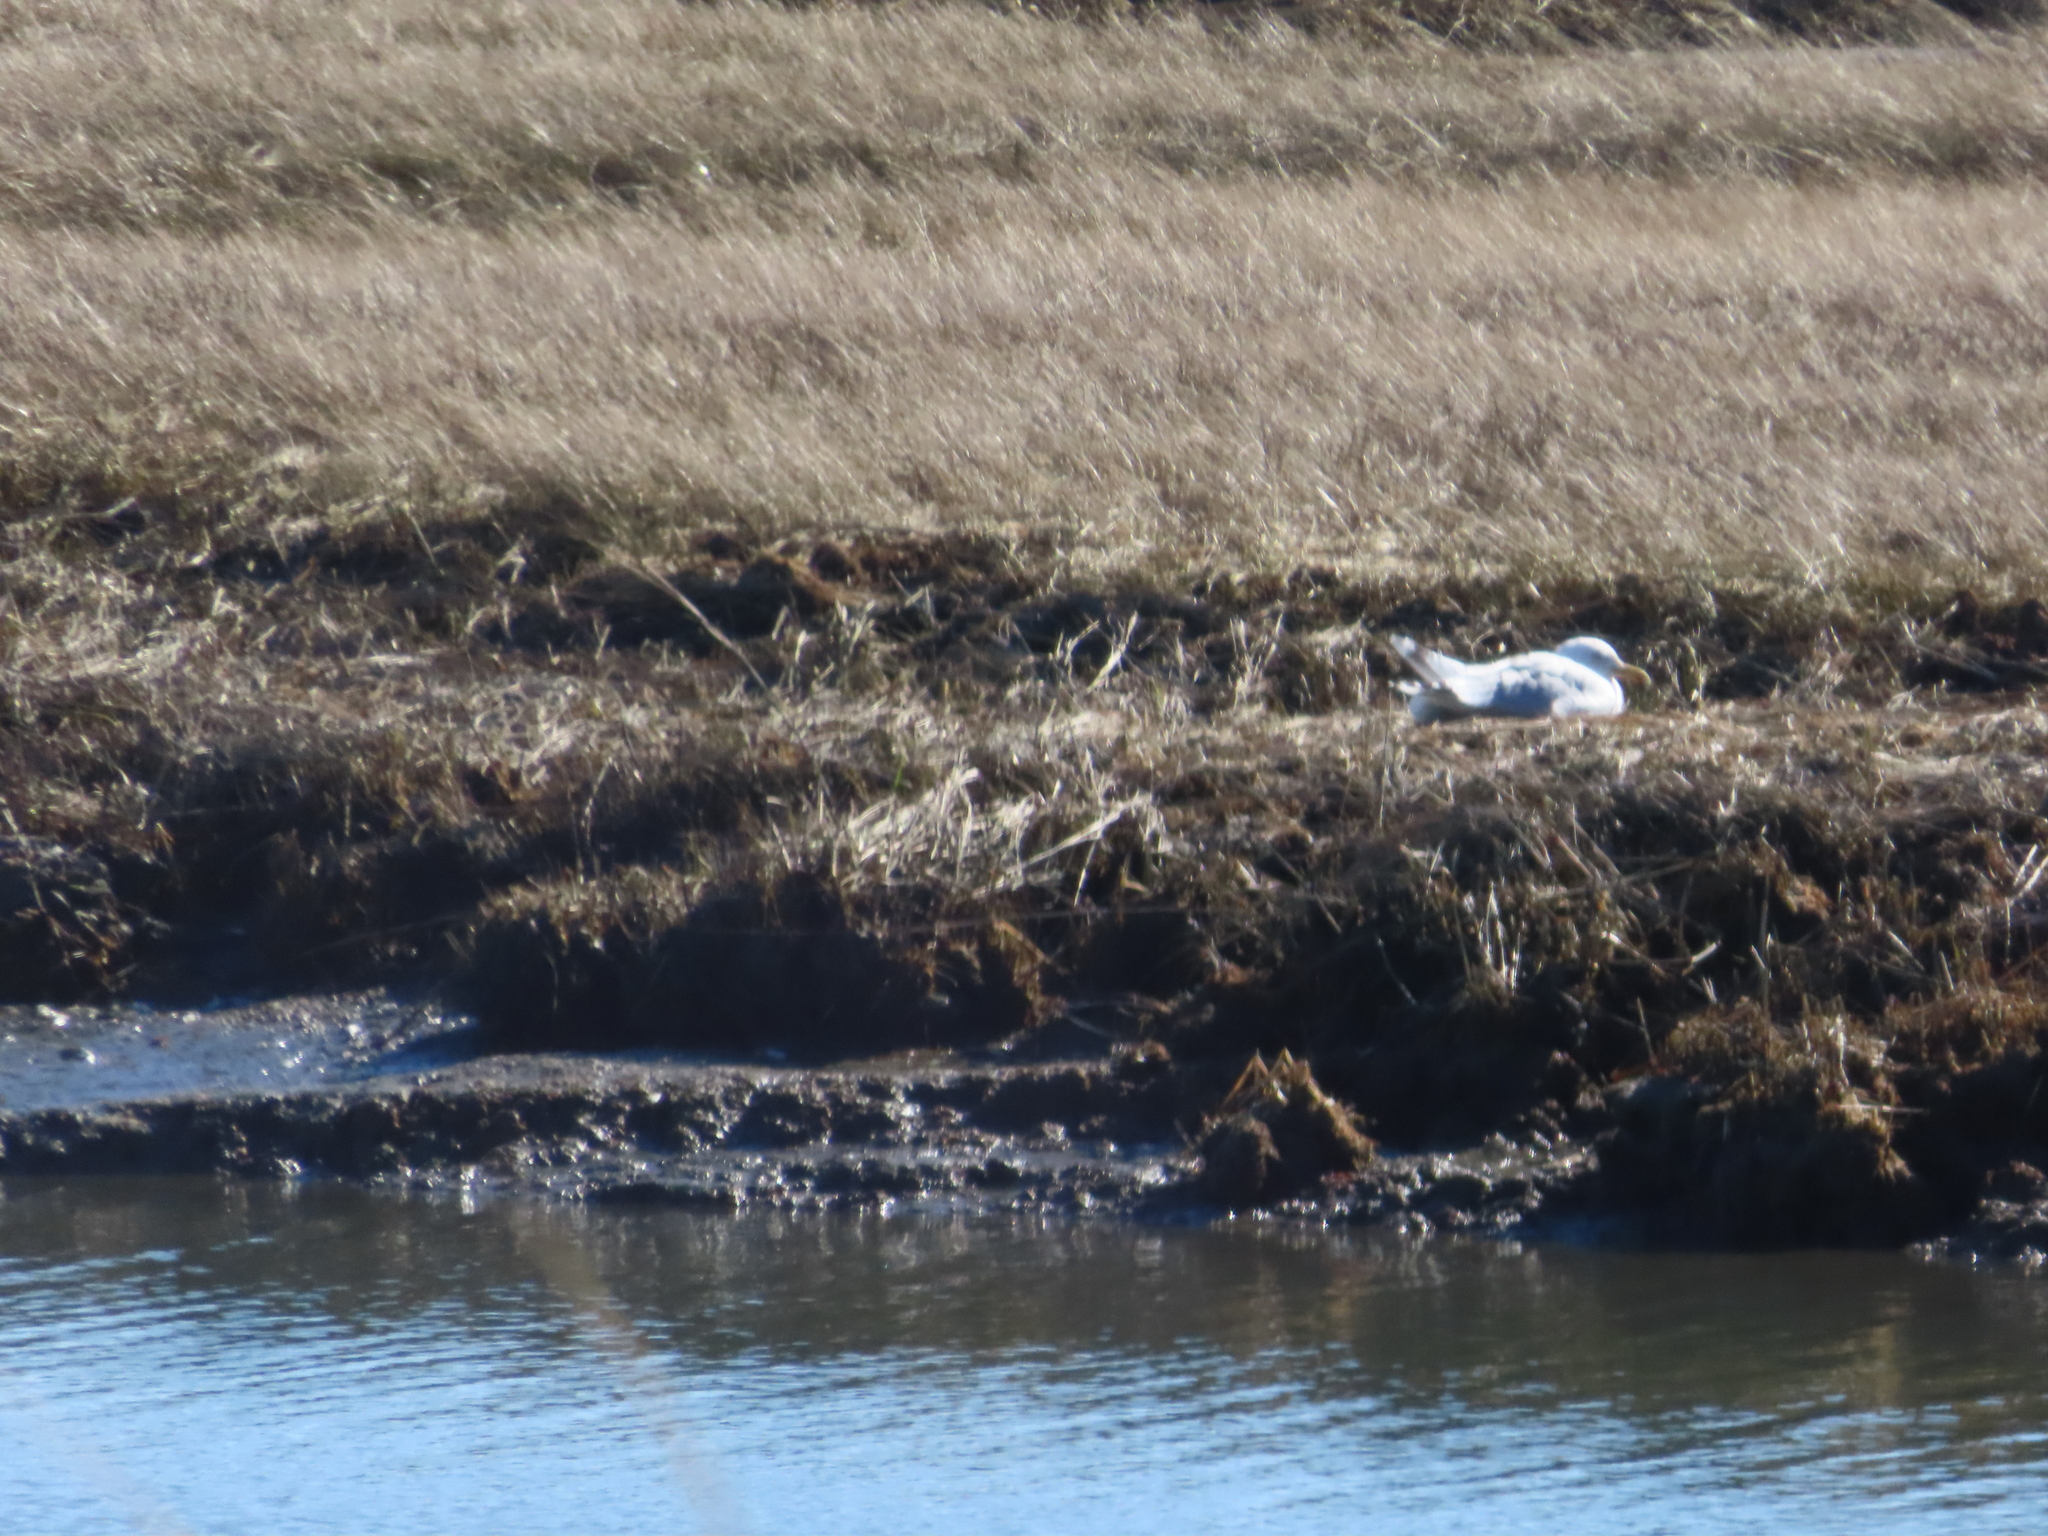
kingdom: Animalia
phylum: Chordata
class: Aves
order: Charadriiformes
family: Laridae
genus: Larus
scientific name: Larus argentatus
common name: Herring gull
